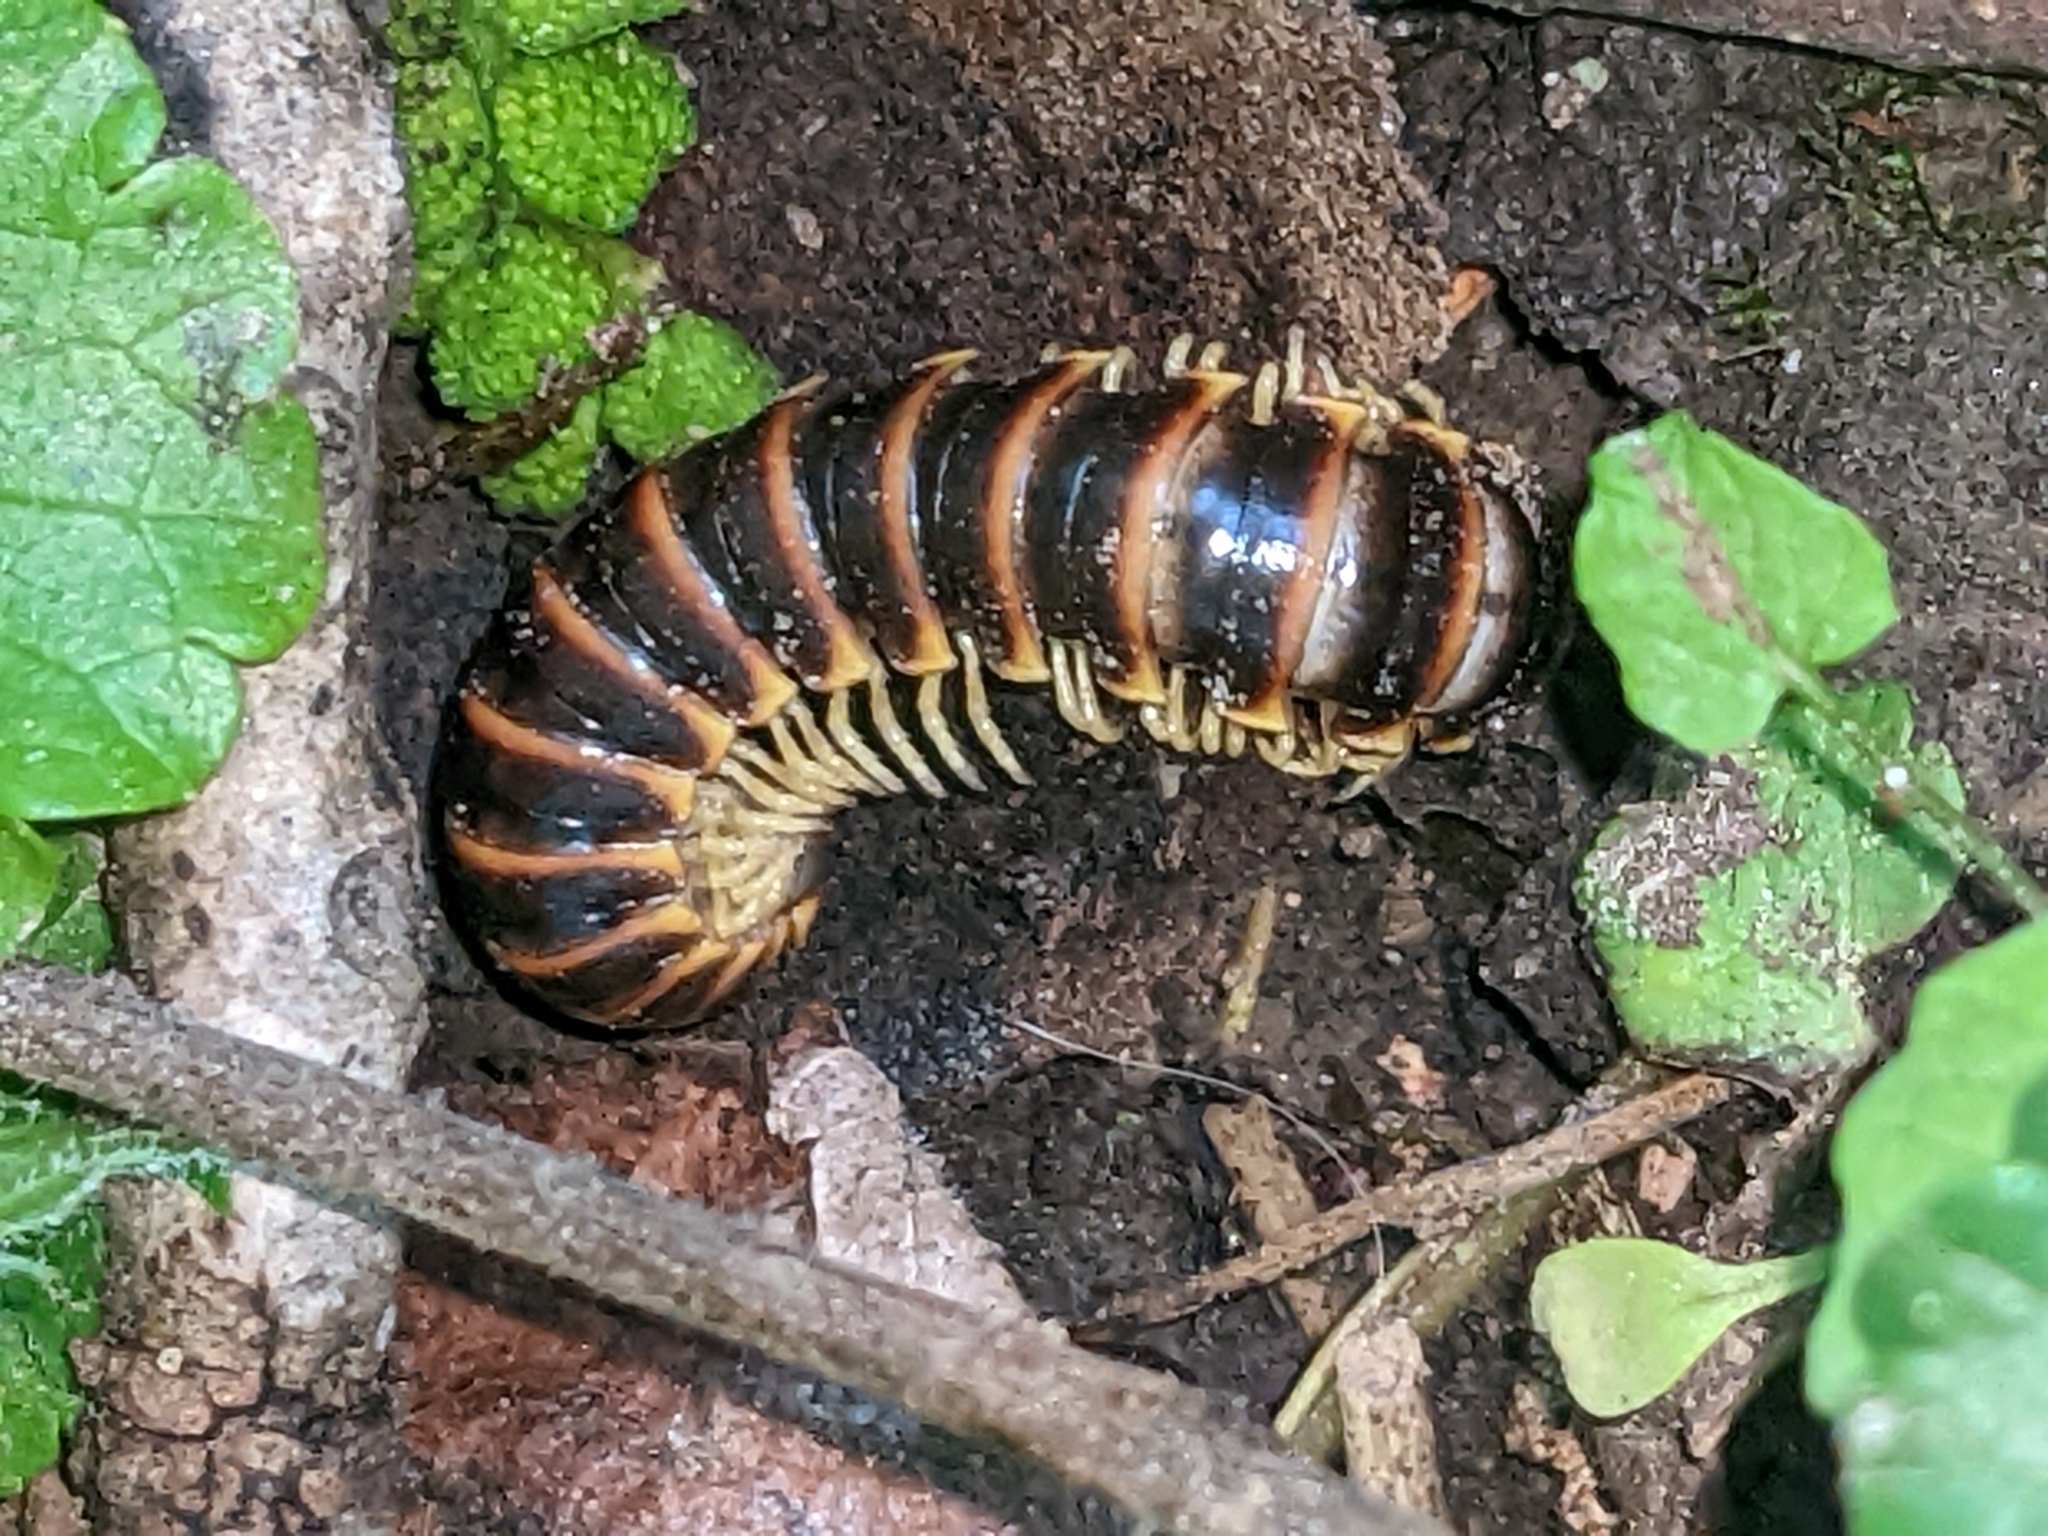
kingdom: Animalia
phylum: Arthropoda
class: Diplopoda
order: Polydesmida
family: Xystodesmidae
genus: Pleuroloma
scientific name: Pleuroloma flavipes
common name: Yellow-legged pleuroloma
